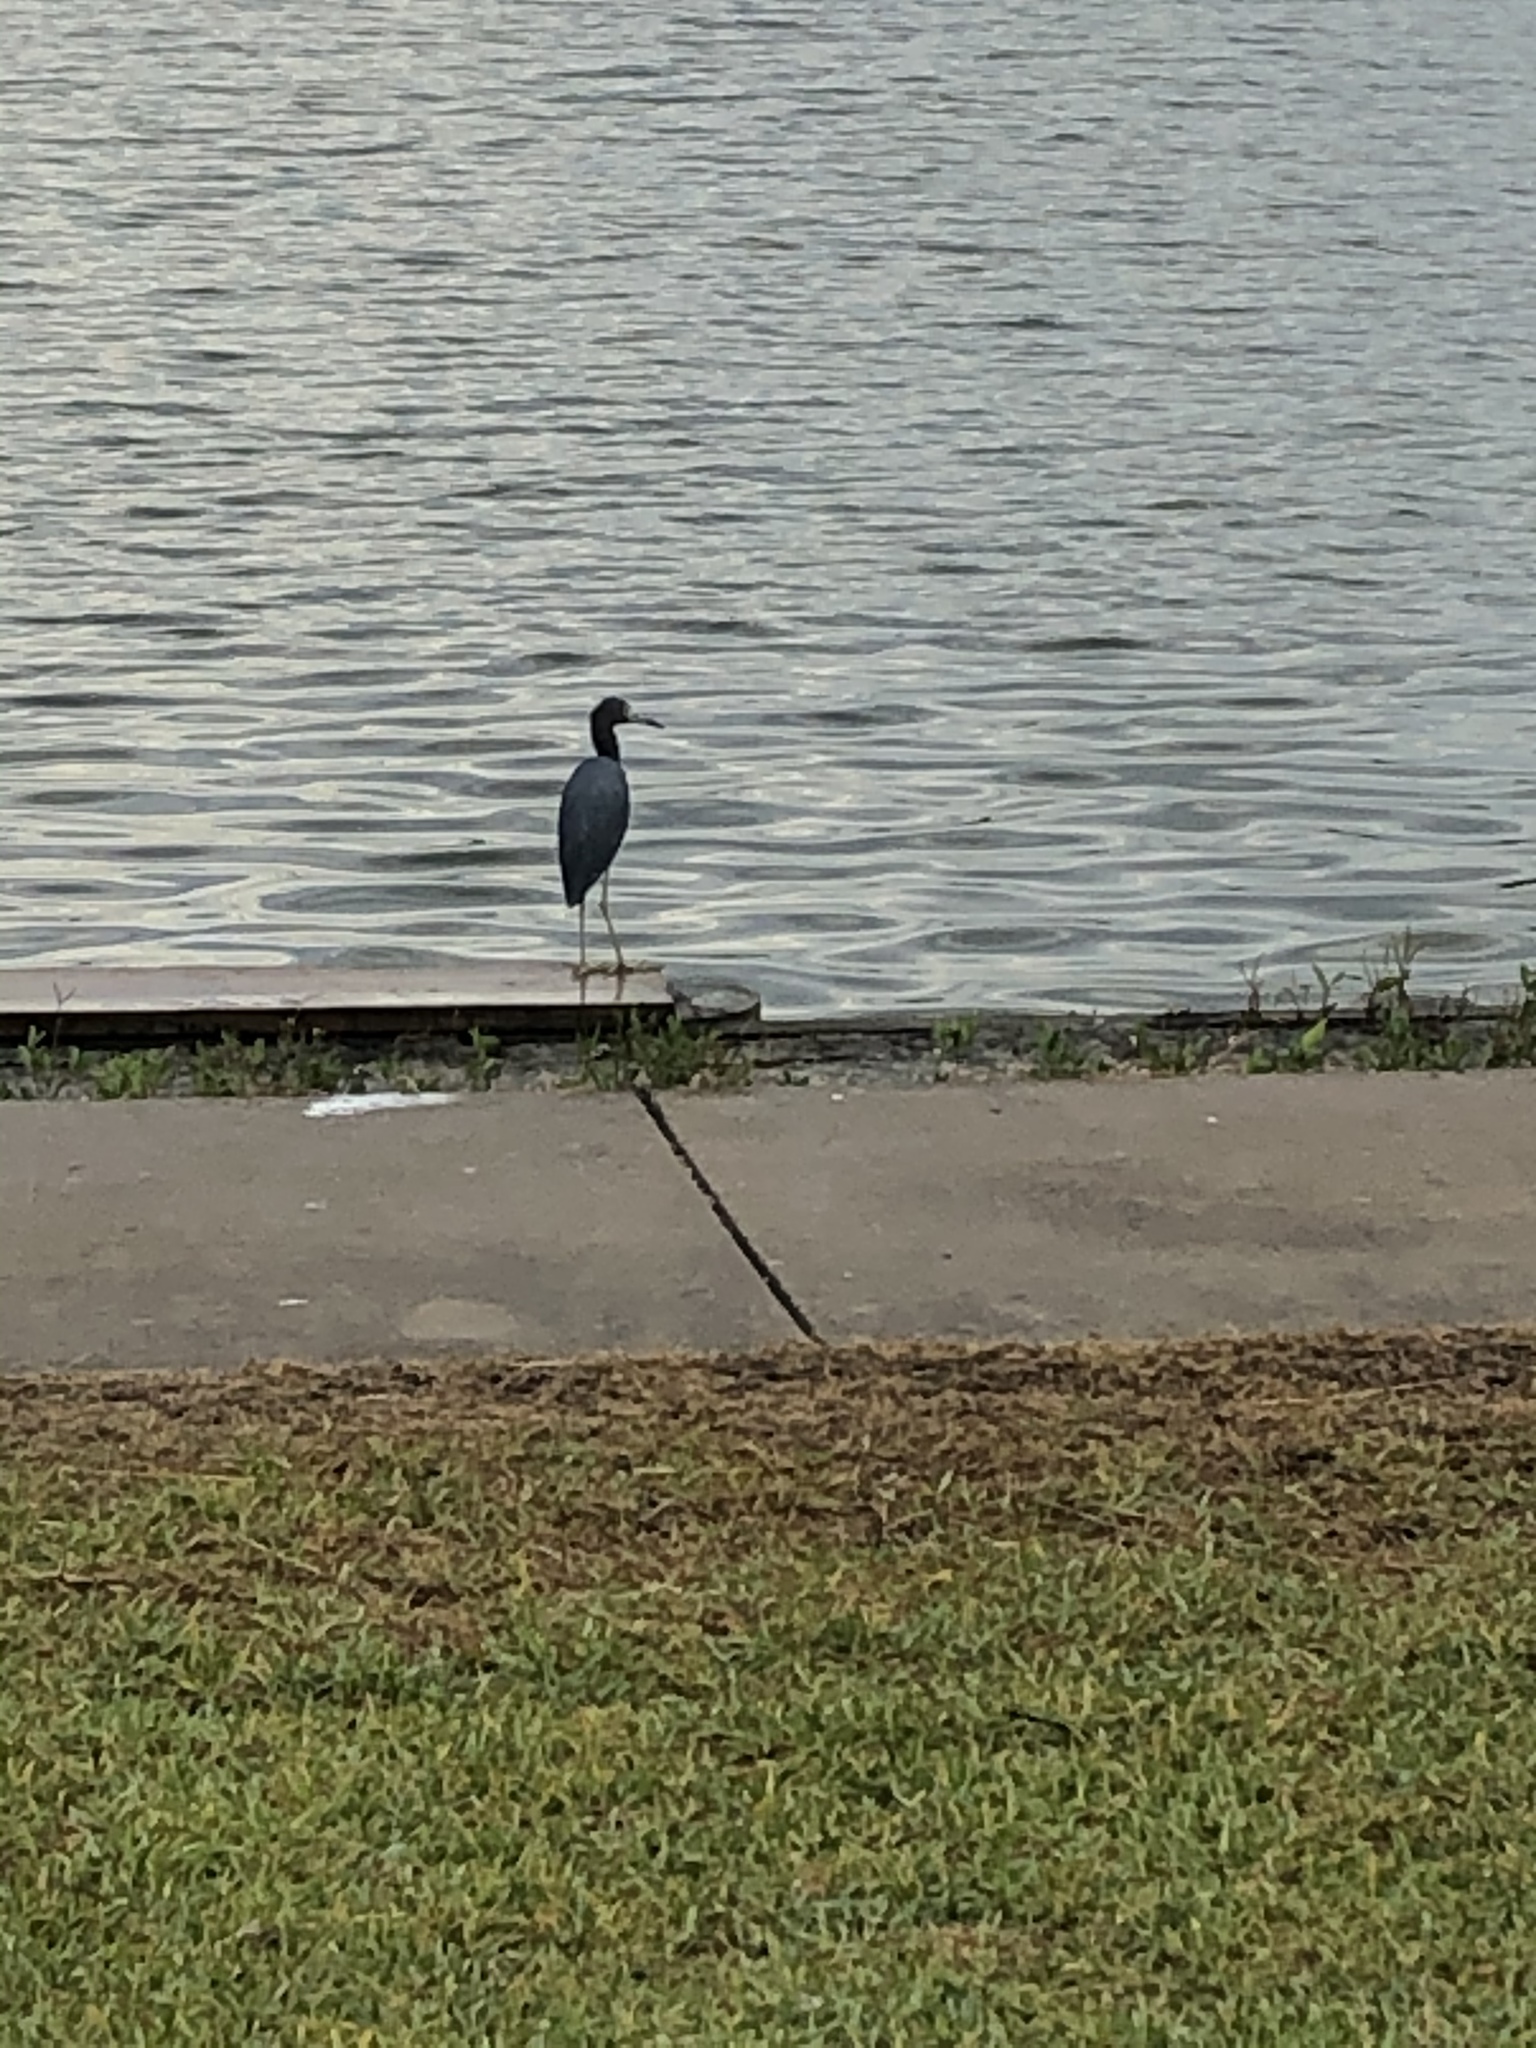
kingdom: Animalia
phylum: Chordata
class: Aves
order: Pelecaniformes
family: Ardeidae
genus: Egretta
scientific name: Egretta caerulea
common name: Little blue heron
